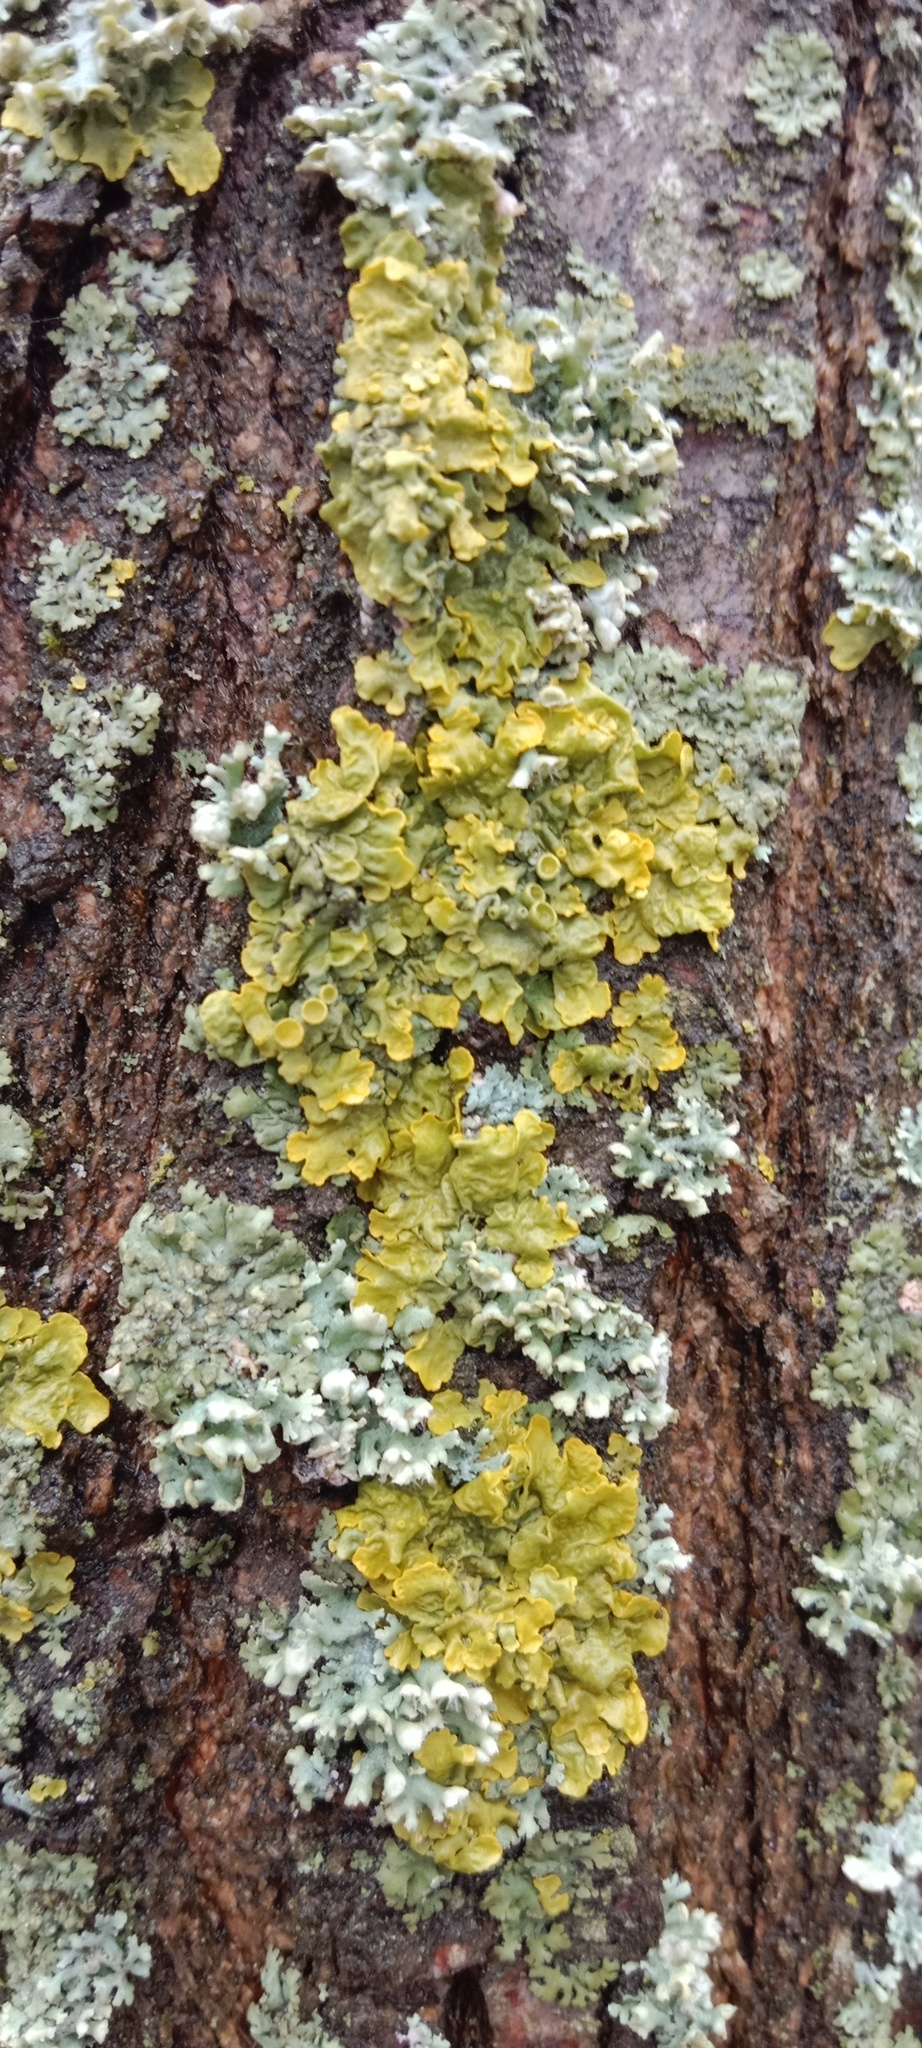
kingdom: Fungi
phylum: Ascomycota
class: Lecanoromycetes
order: Teloschistales
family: Teloschistaceae
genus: Xanthoria
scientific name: Xanthoria parietina
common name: Common orange lichen
